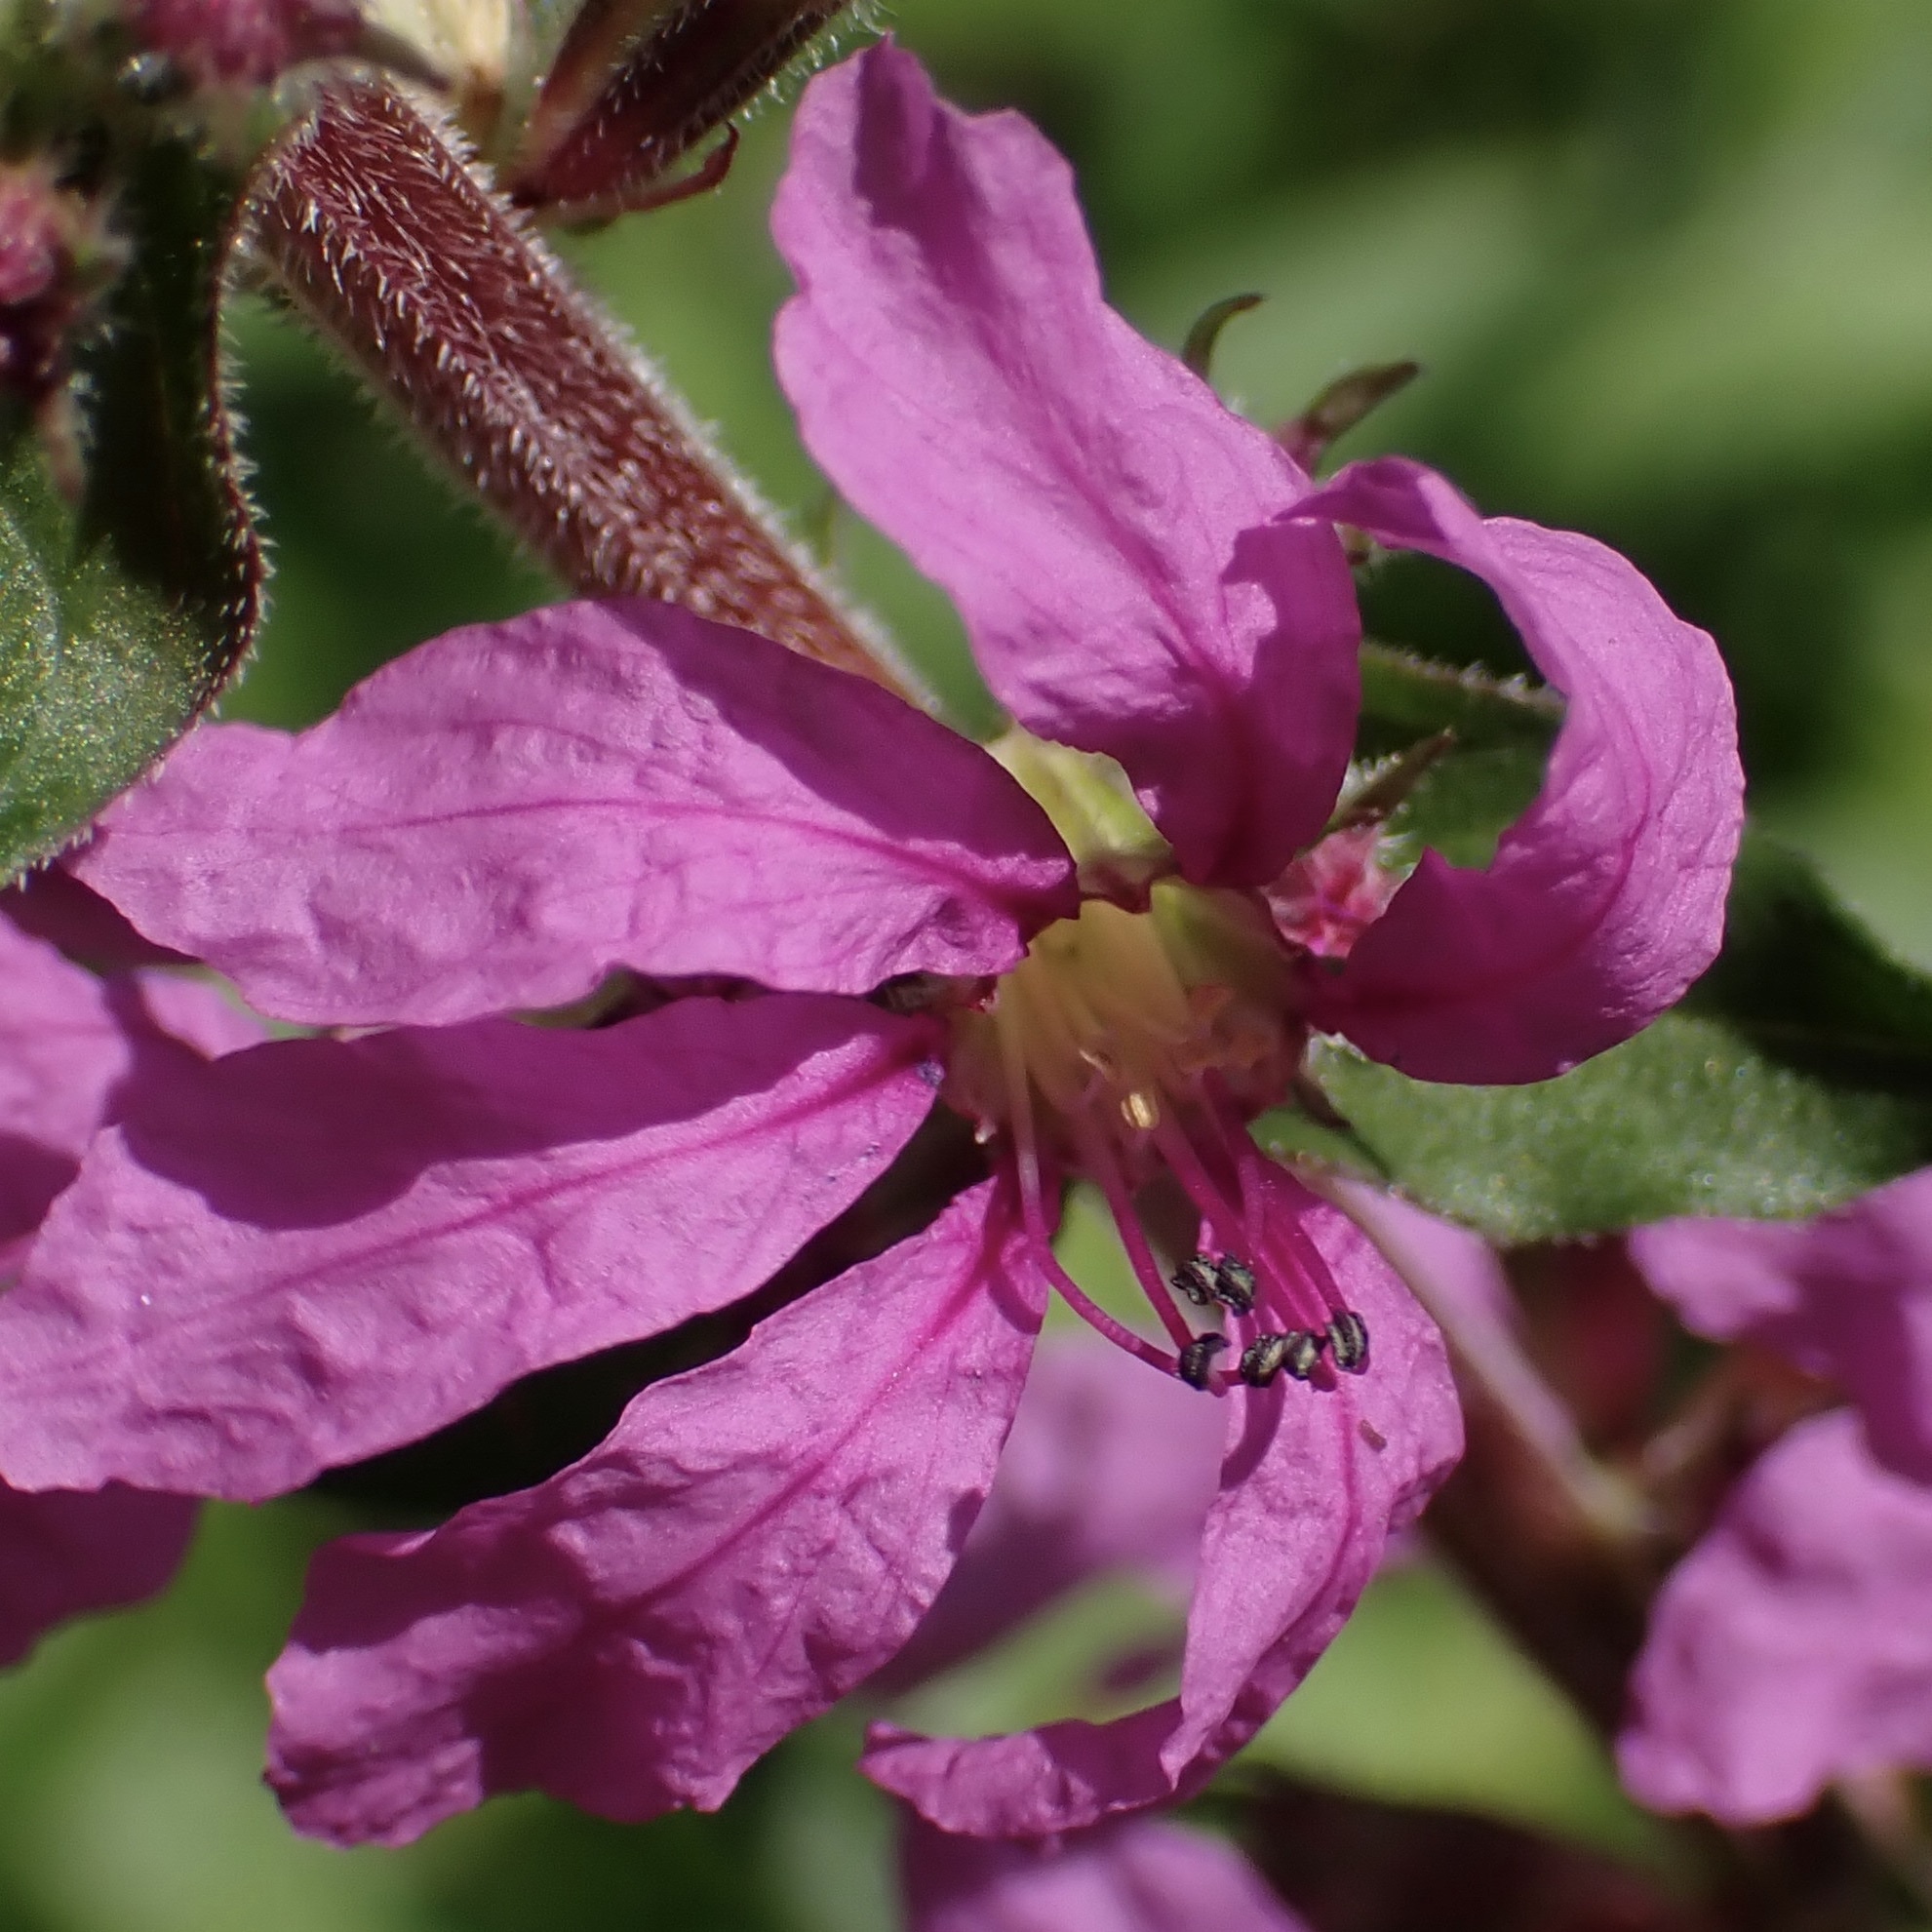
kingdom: Plantae
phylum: Tracheophyta
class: Magnoliopsida
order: Myrtales
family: Lythraceae
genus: Lythrum
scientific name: Lythrum salicaria
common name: Purple loosestrife
